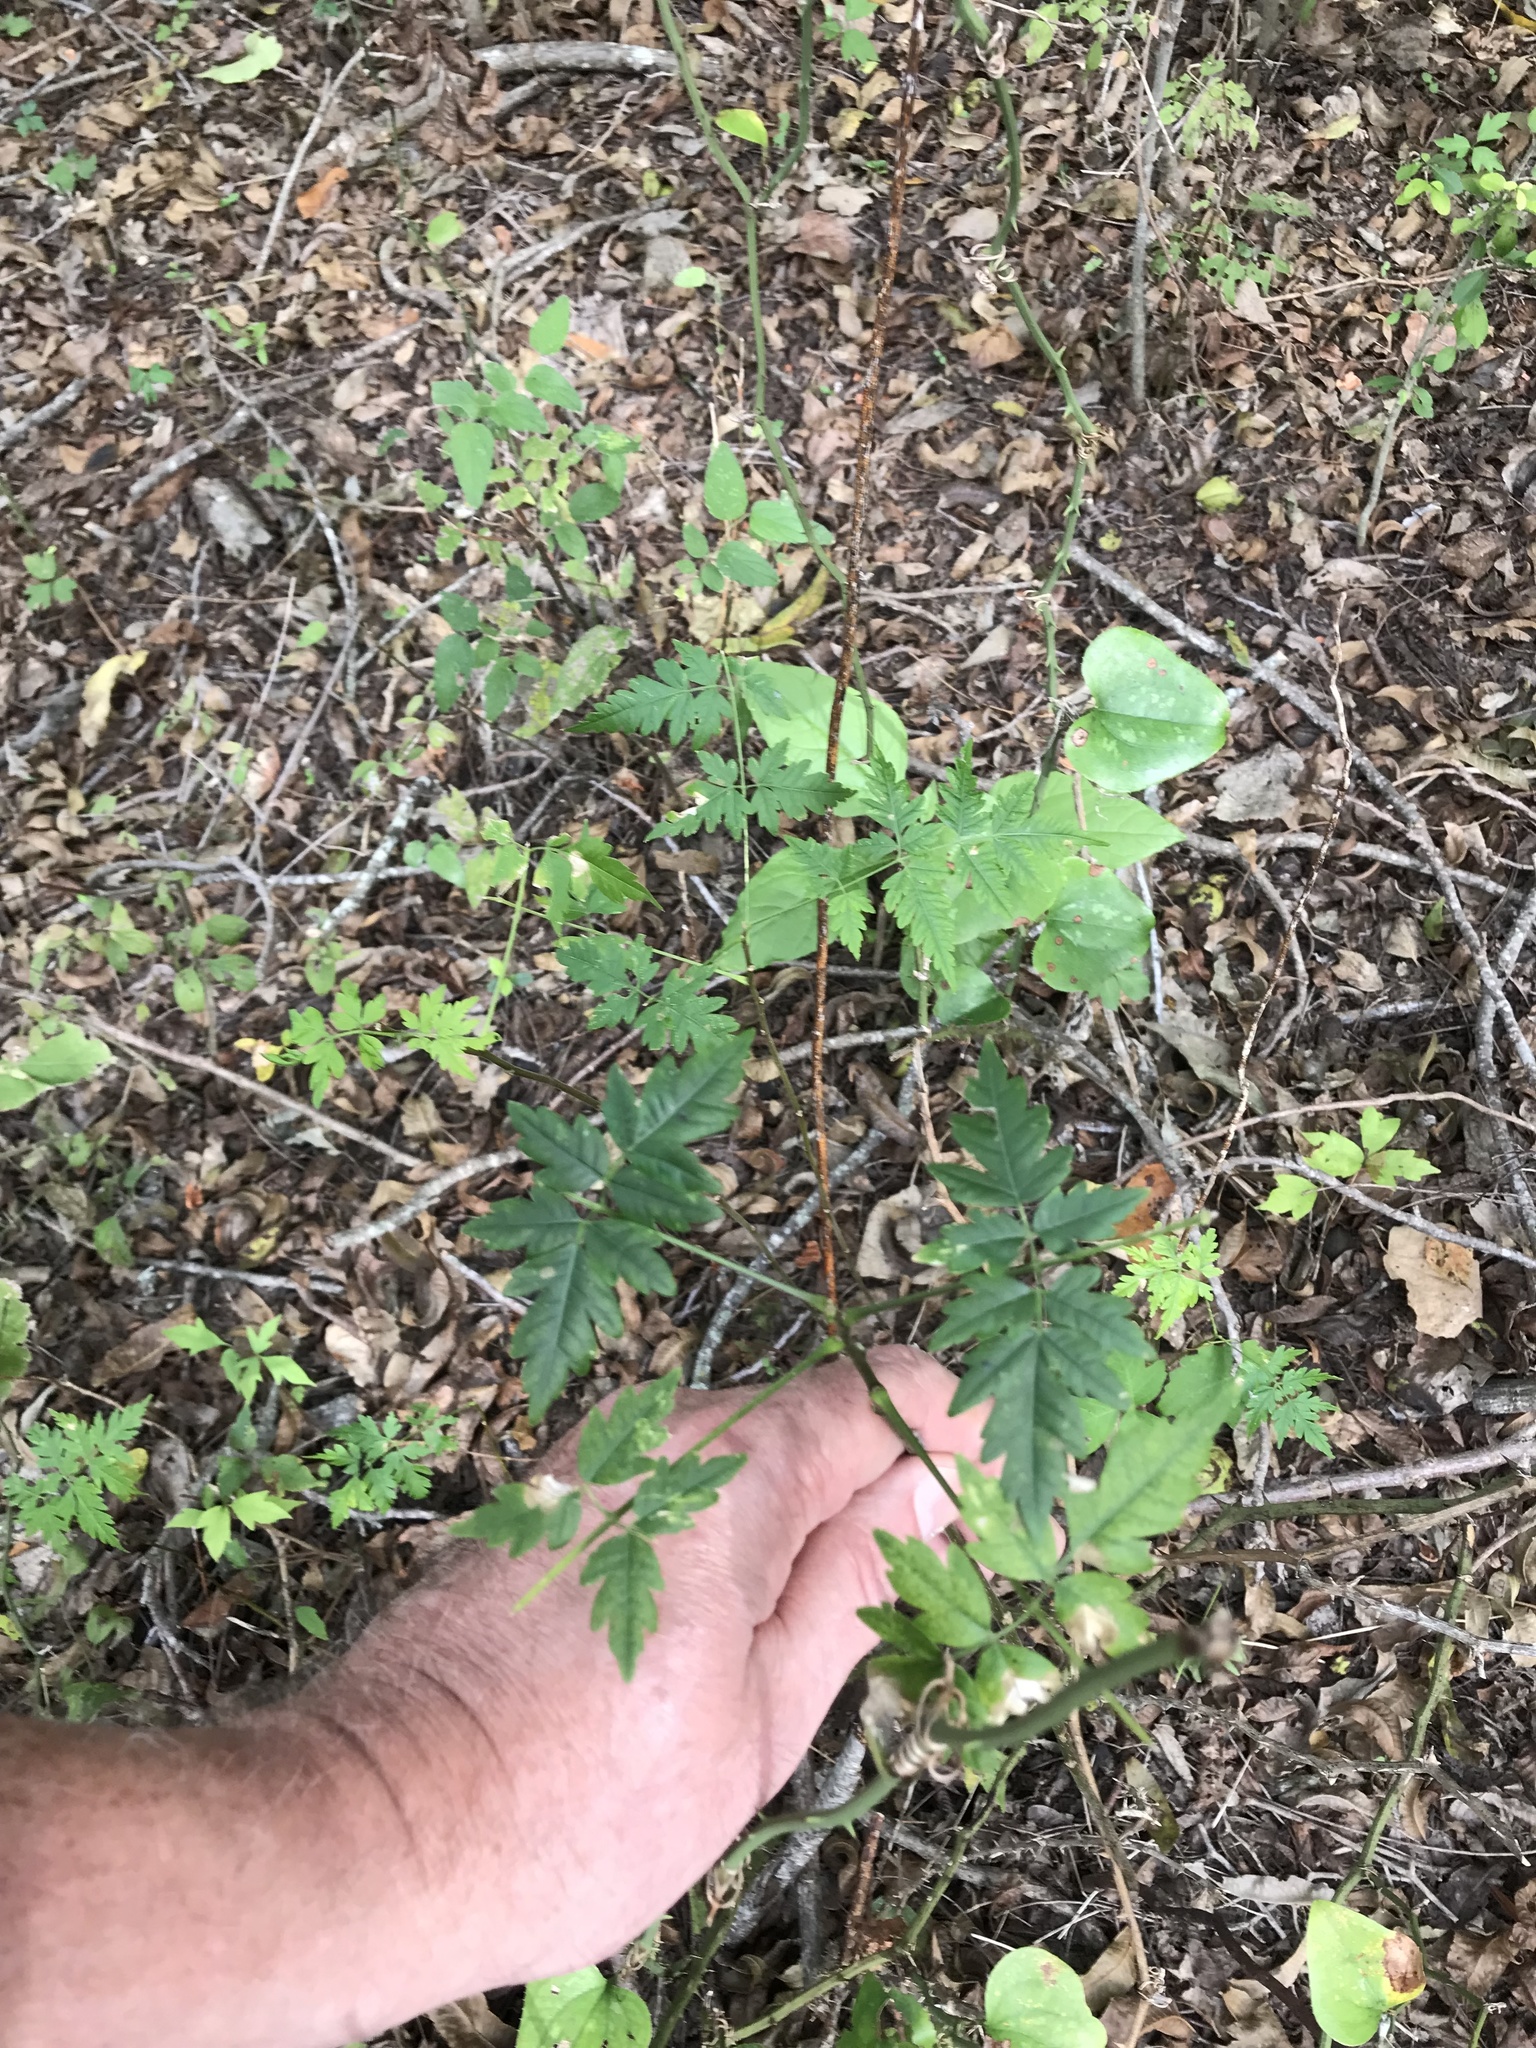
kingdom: Plantae
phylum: Tracheophyta
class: Magnoliopsida
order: Sapindales
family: Meliaceae
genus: Melia
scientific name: Melia azedarach
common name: Chinaberrytree
